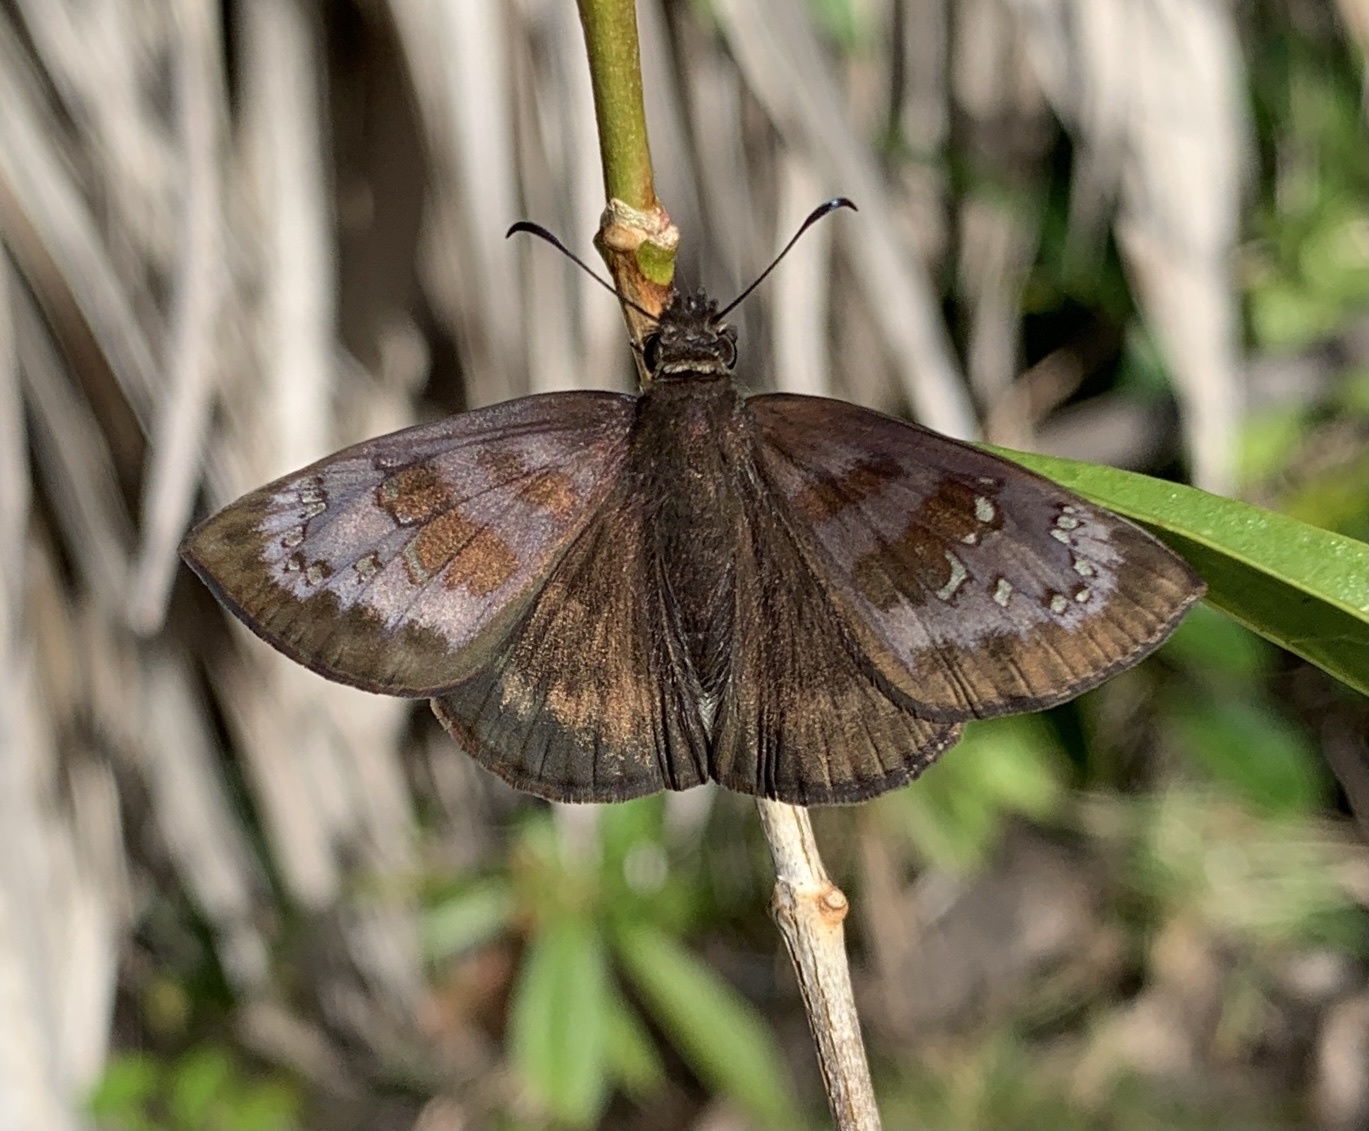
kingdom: Animalia
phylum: Arthropoda
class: Insecta
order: Lepidoptera
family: Hesperiidae
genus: Ephyriades
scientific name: Ephyriades brunnea
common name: Florida duskywing
